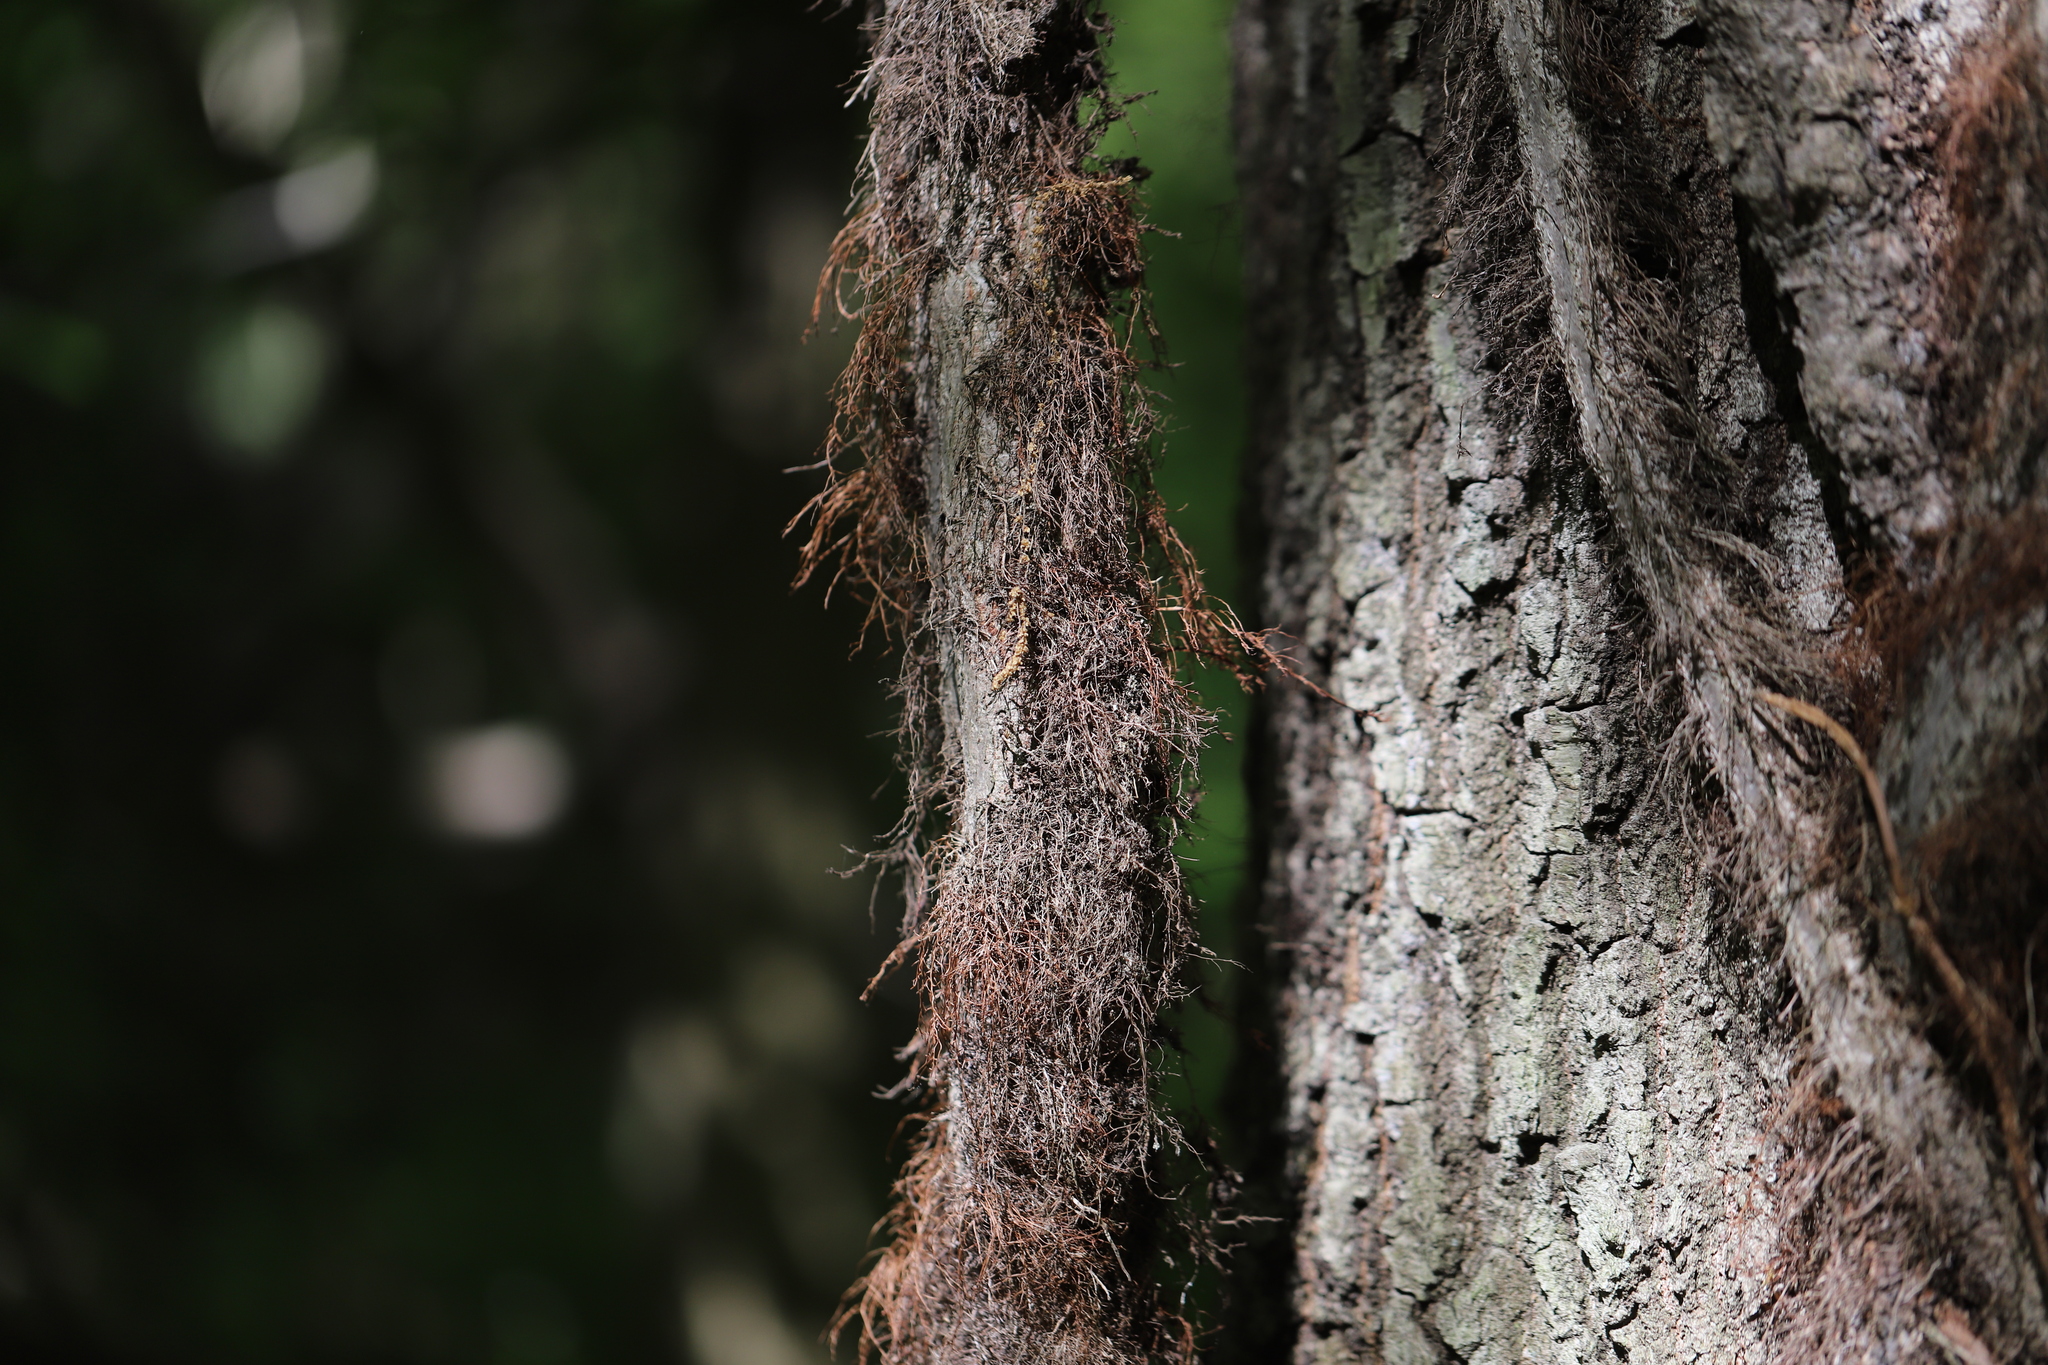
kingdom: Plantae
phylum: Tracheophyta
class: Magnoliopsida
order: Sapindales
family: Anacardiaceae
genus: Toxicodendron
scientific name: Toxicodendron radicans
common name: Poison ivy
